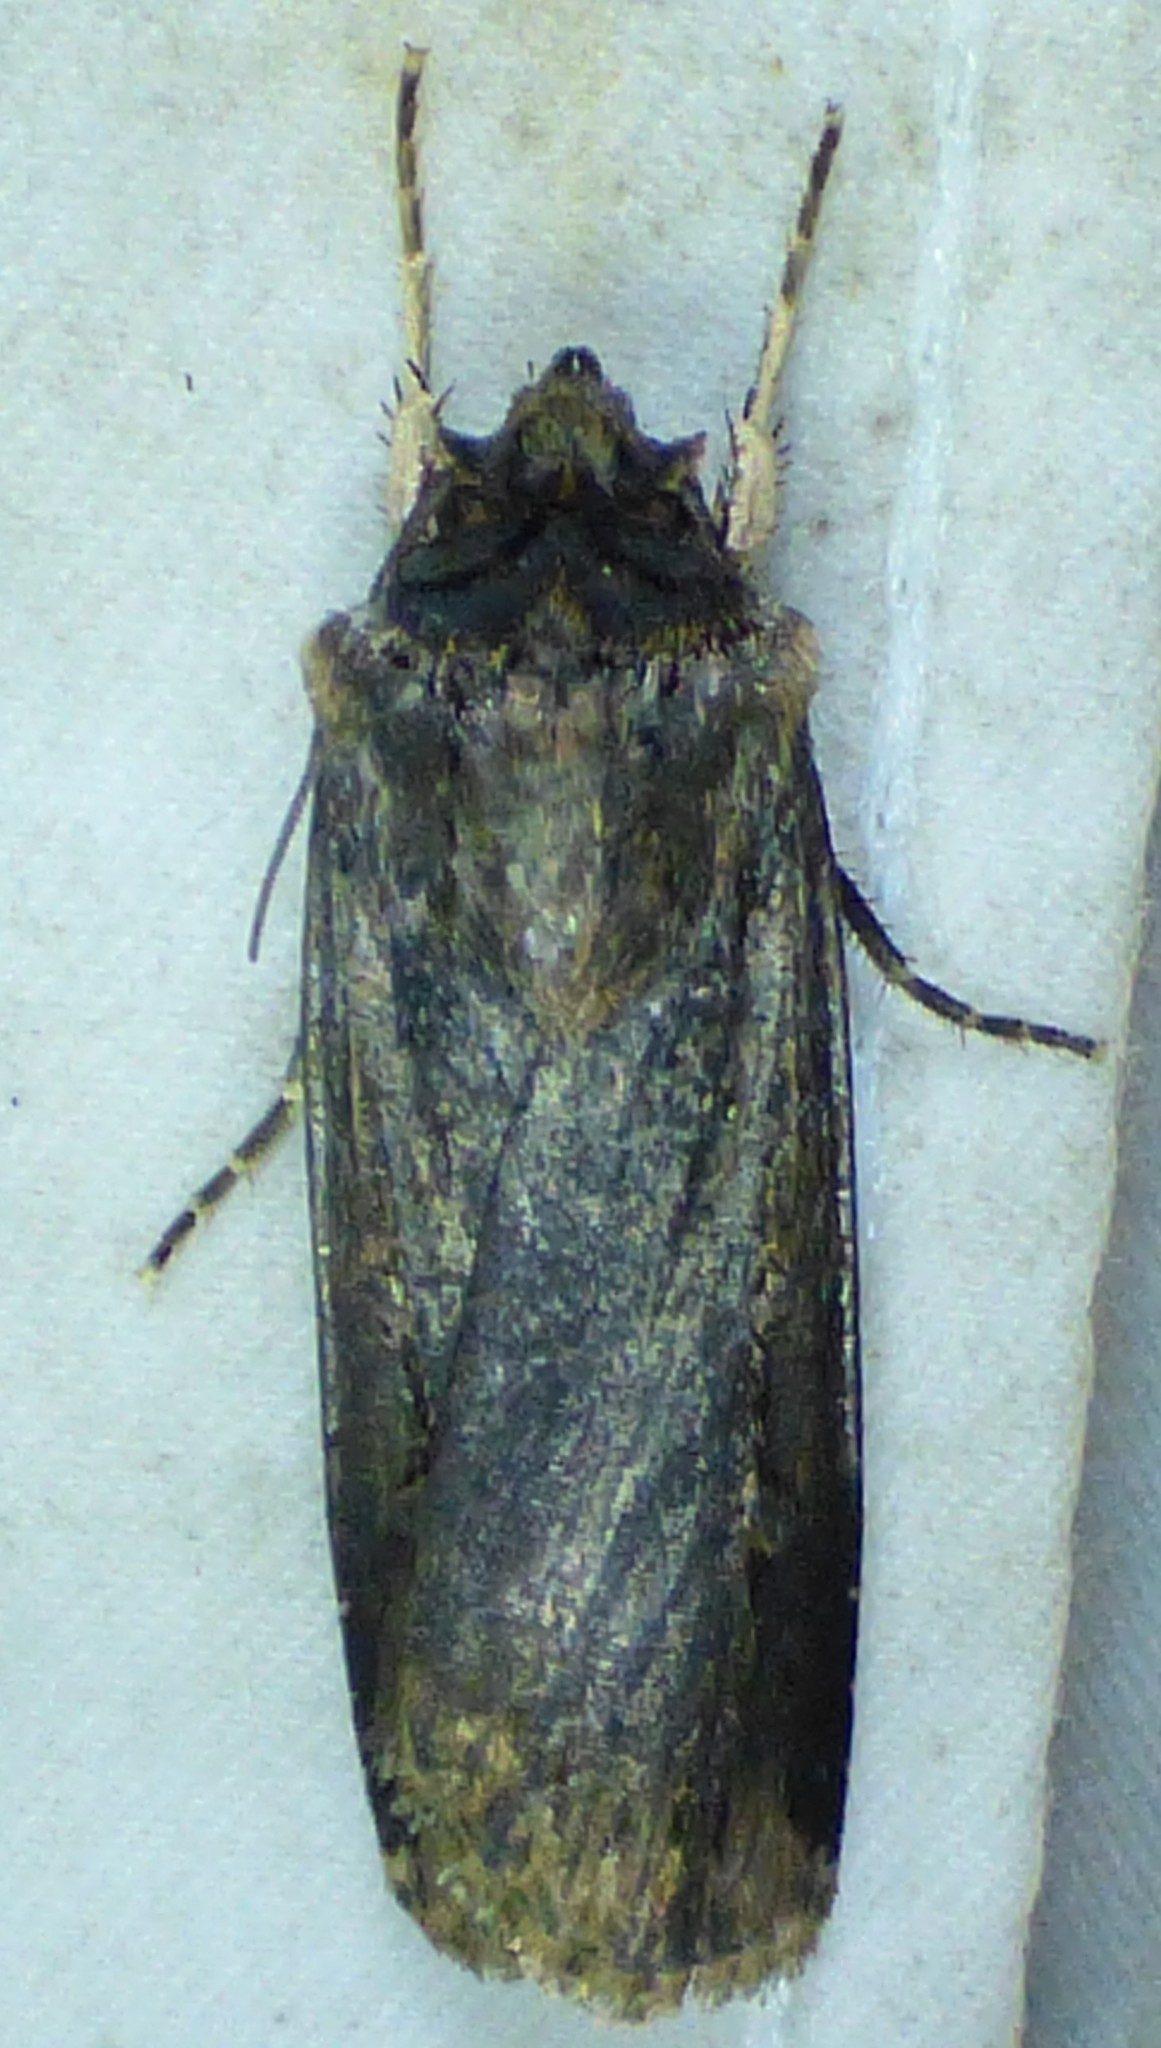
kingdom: Animalia
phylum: Arthropoda
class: Insecta
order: Lepidoptera
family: Noctuidae
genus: Feltia
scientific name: Feltia subterranea
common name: Granulate cutworm
